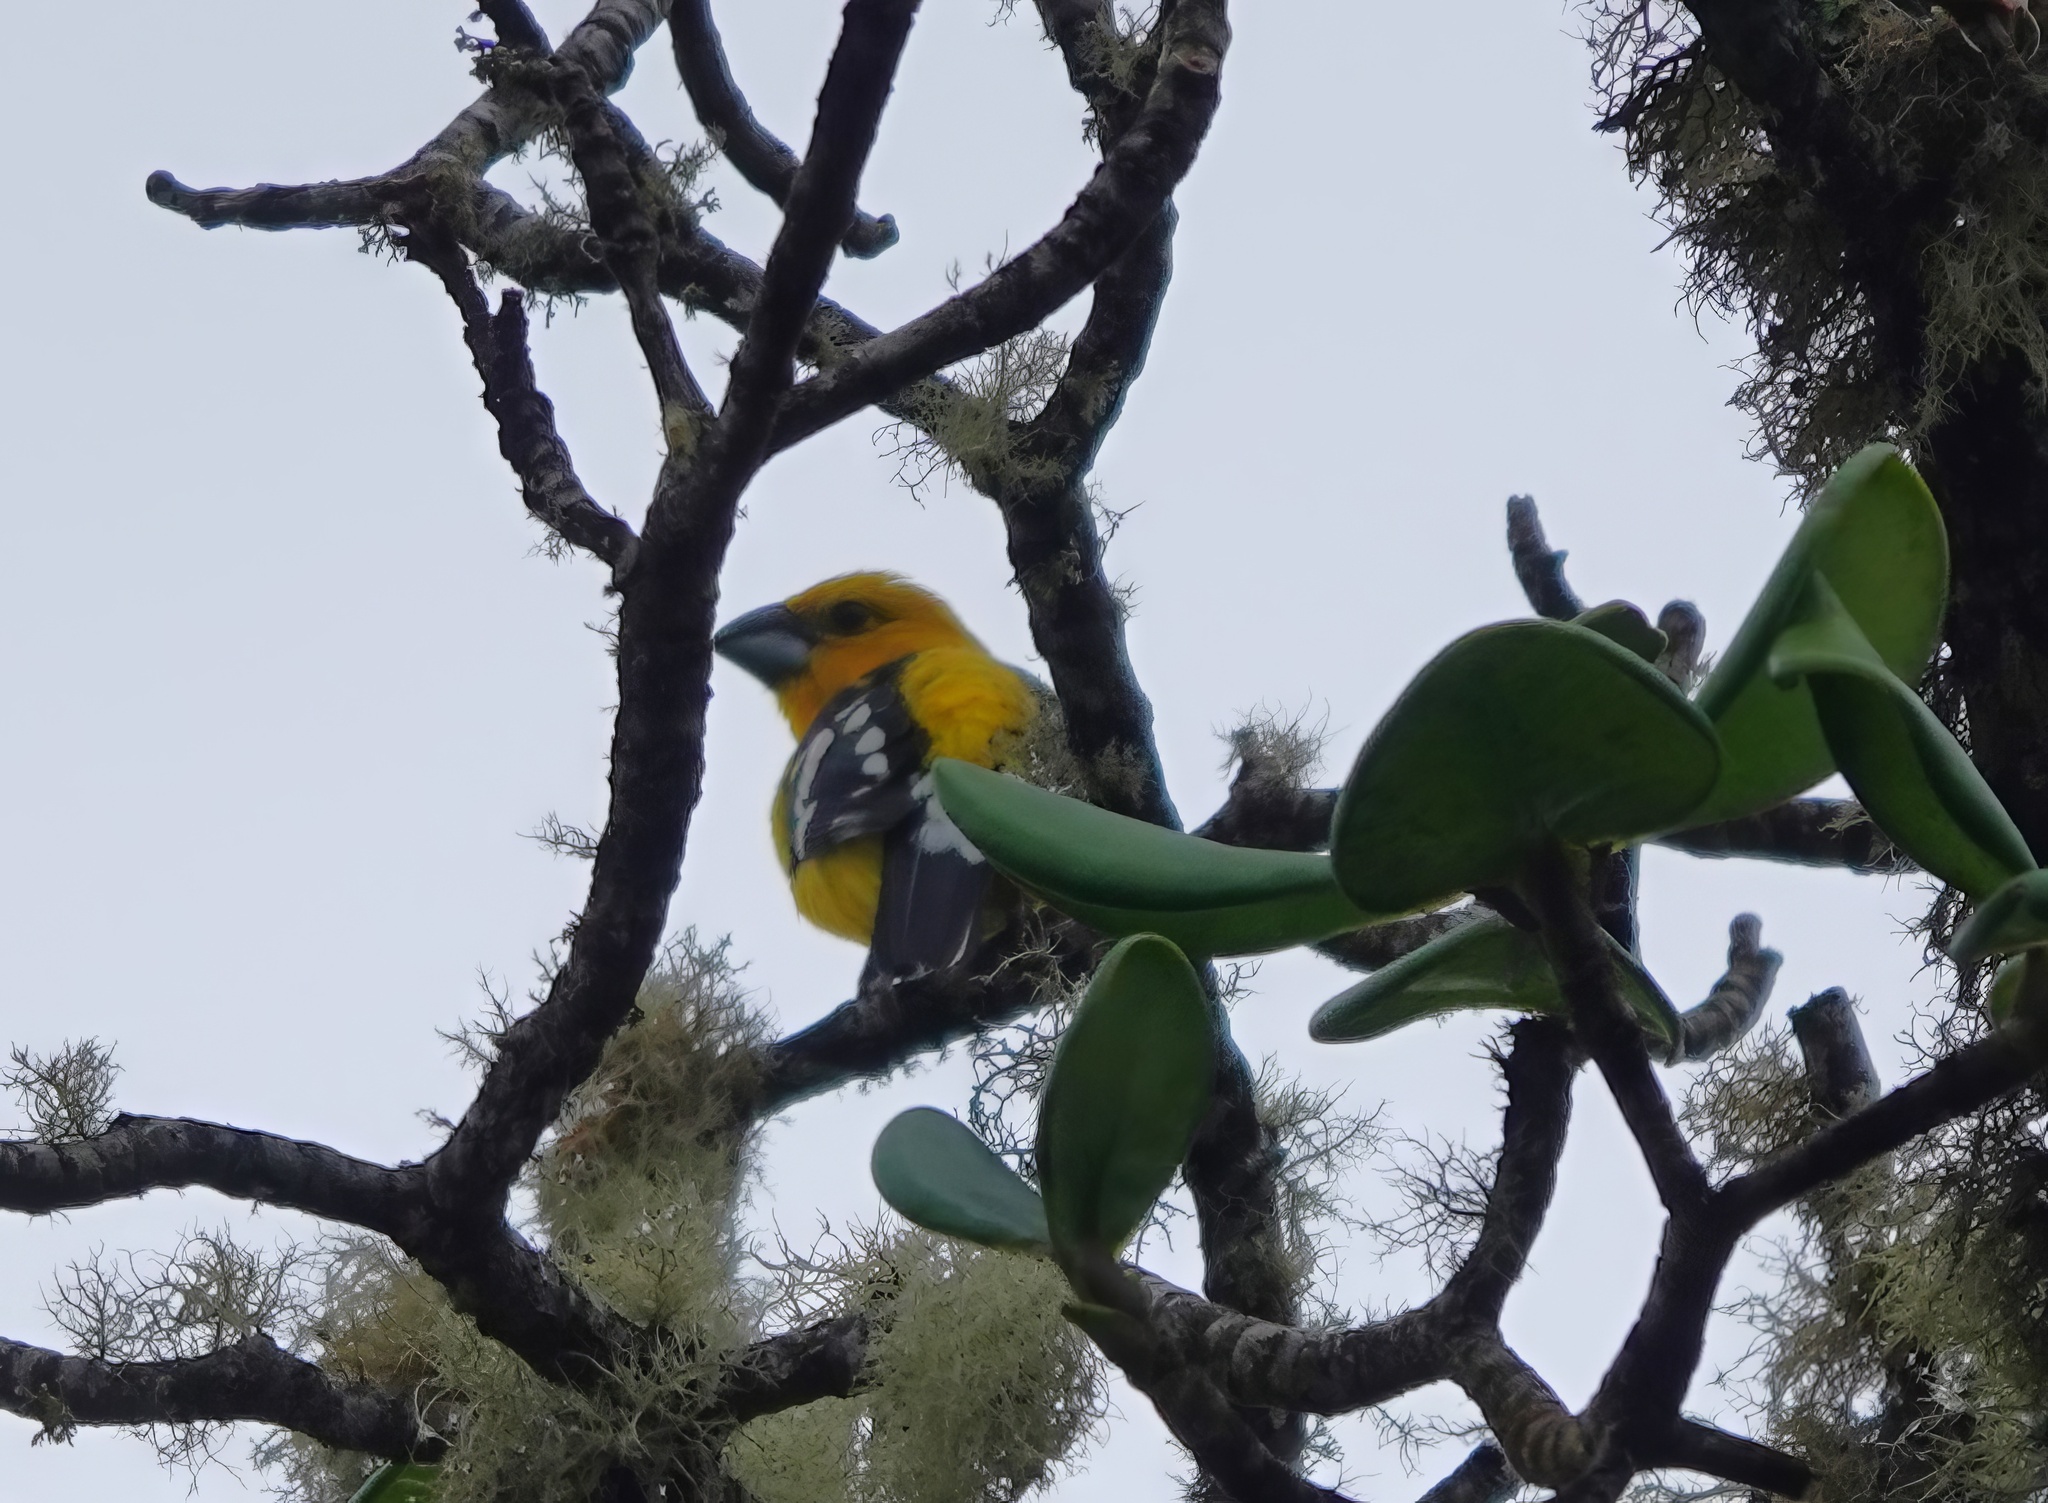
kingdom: Animalia
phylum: Chordata
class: Aves
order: Passeriformes
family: Cardinalidae
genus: Pheucticus
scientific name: Pheucticus chrysogaster
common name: Golden grosbeak
